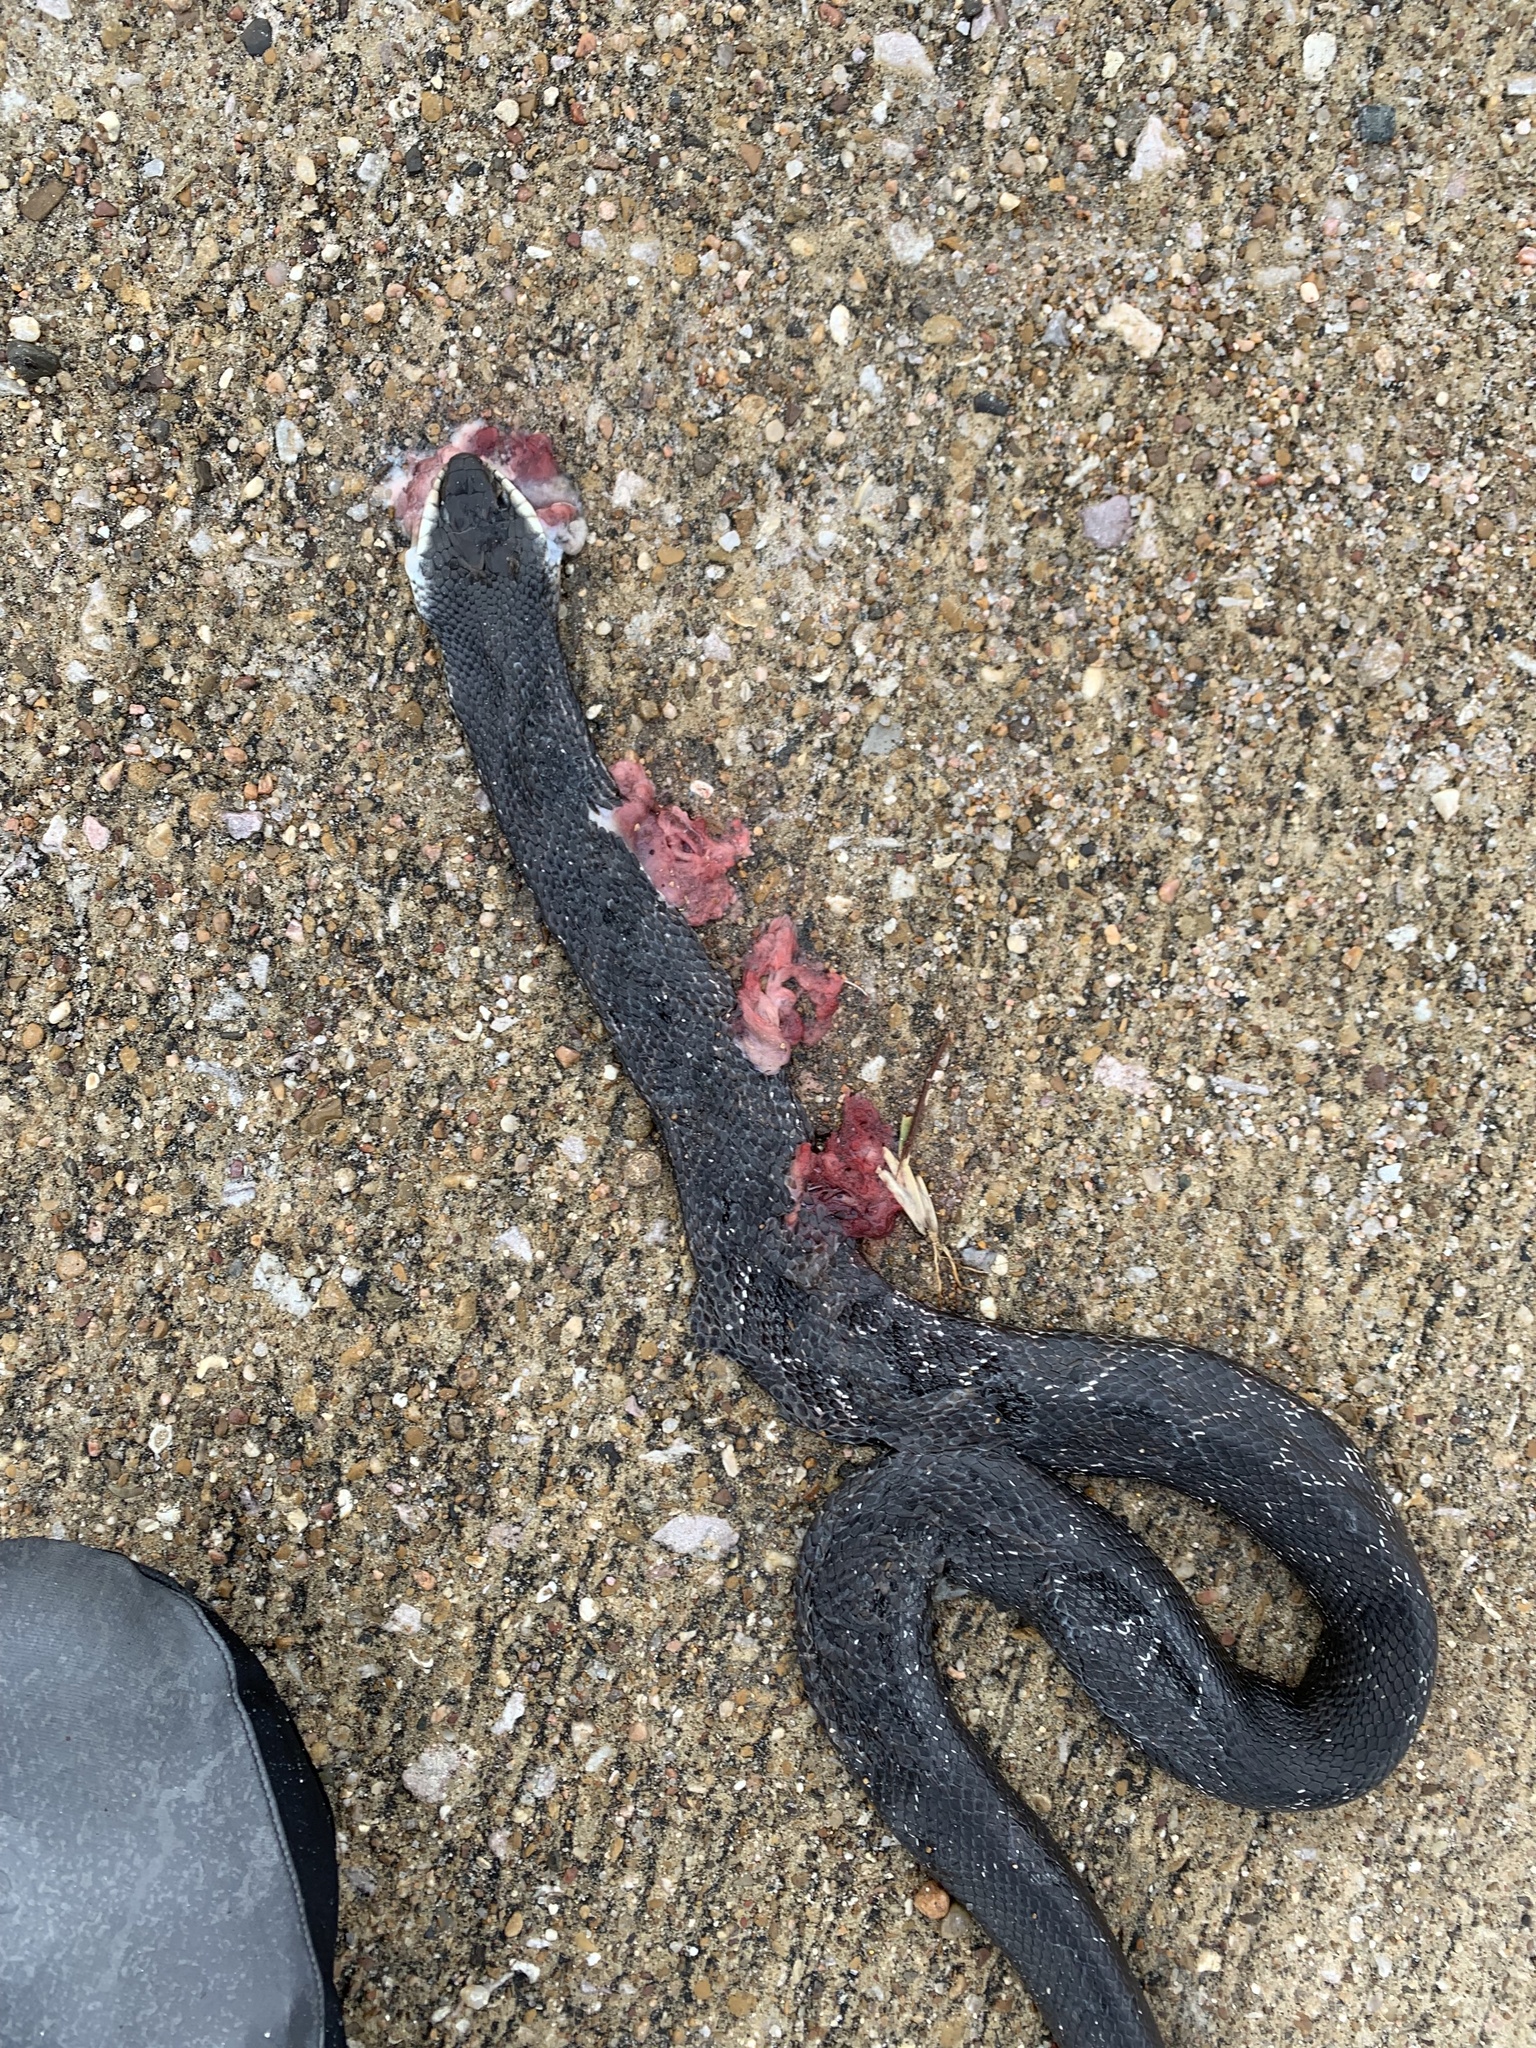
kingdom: Animalia
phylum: Chordata
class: Squamata
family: Colubridae
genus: Pantherophis
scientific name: Pantherophis obsoletus
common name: Black rat snake
